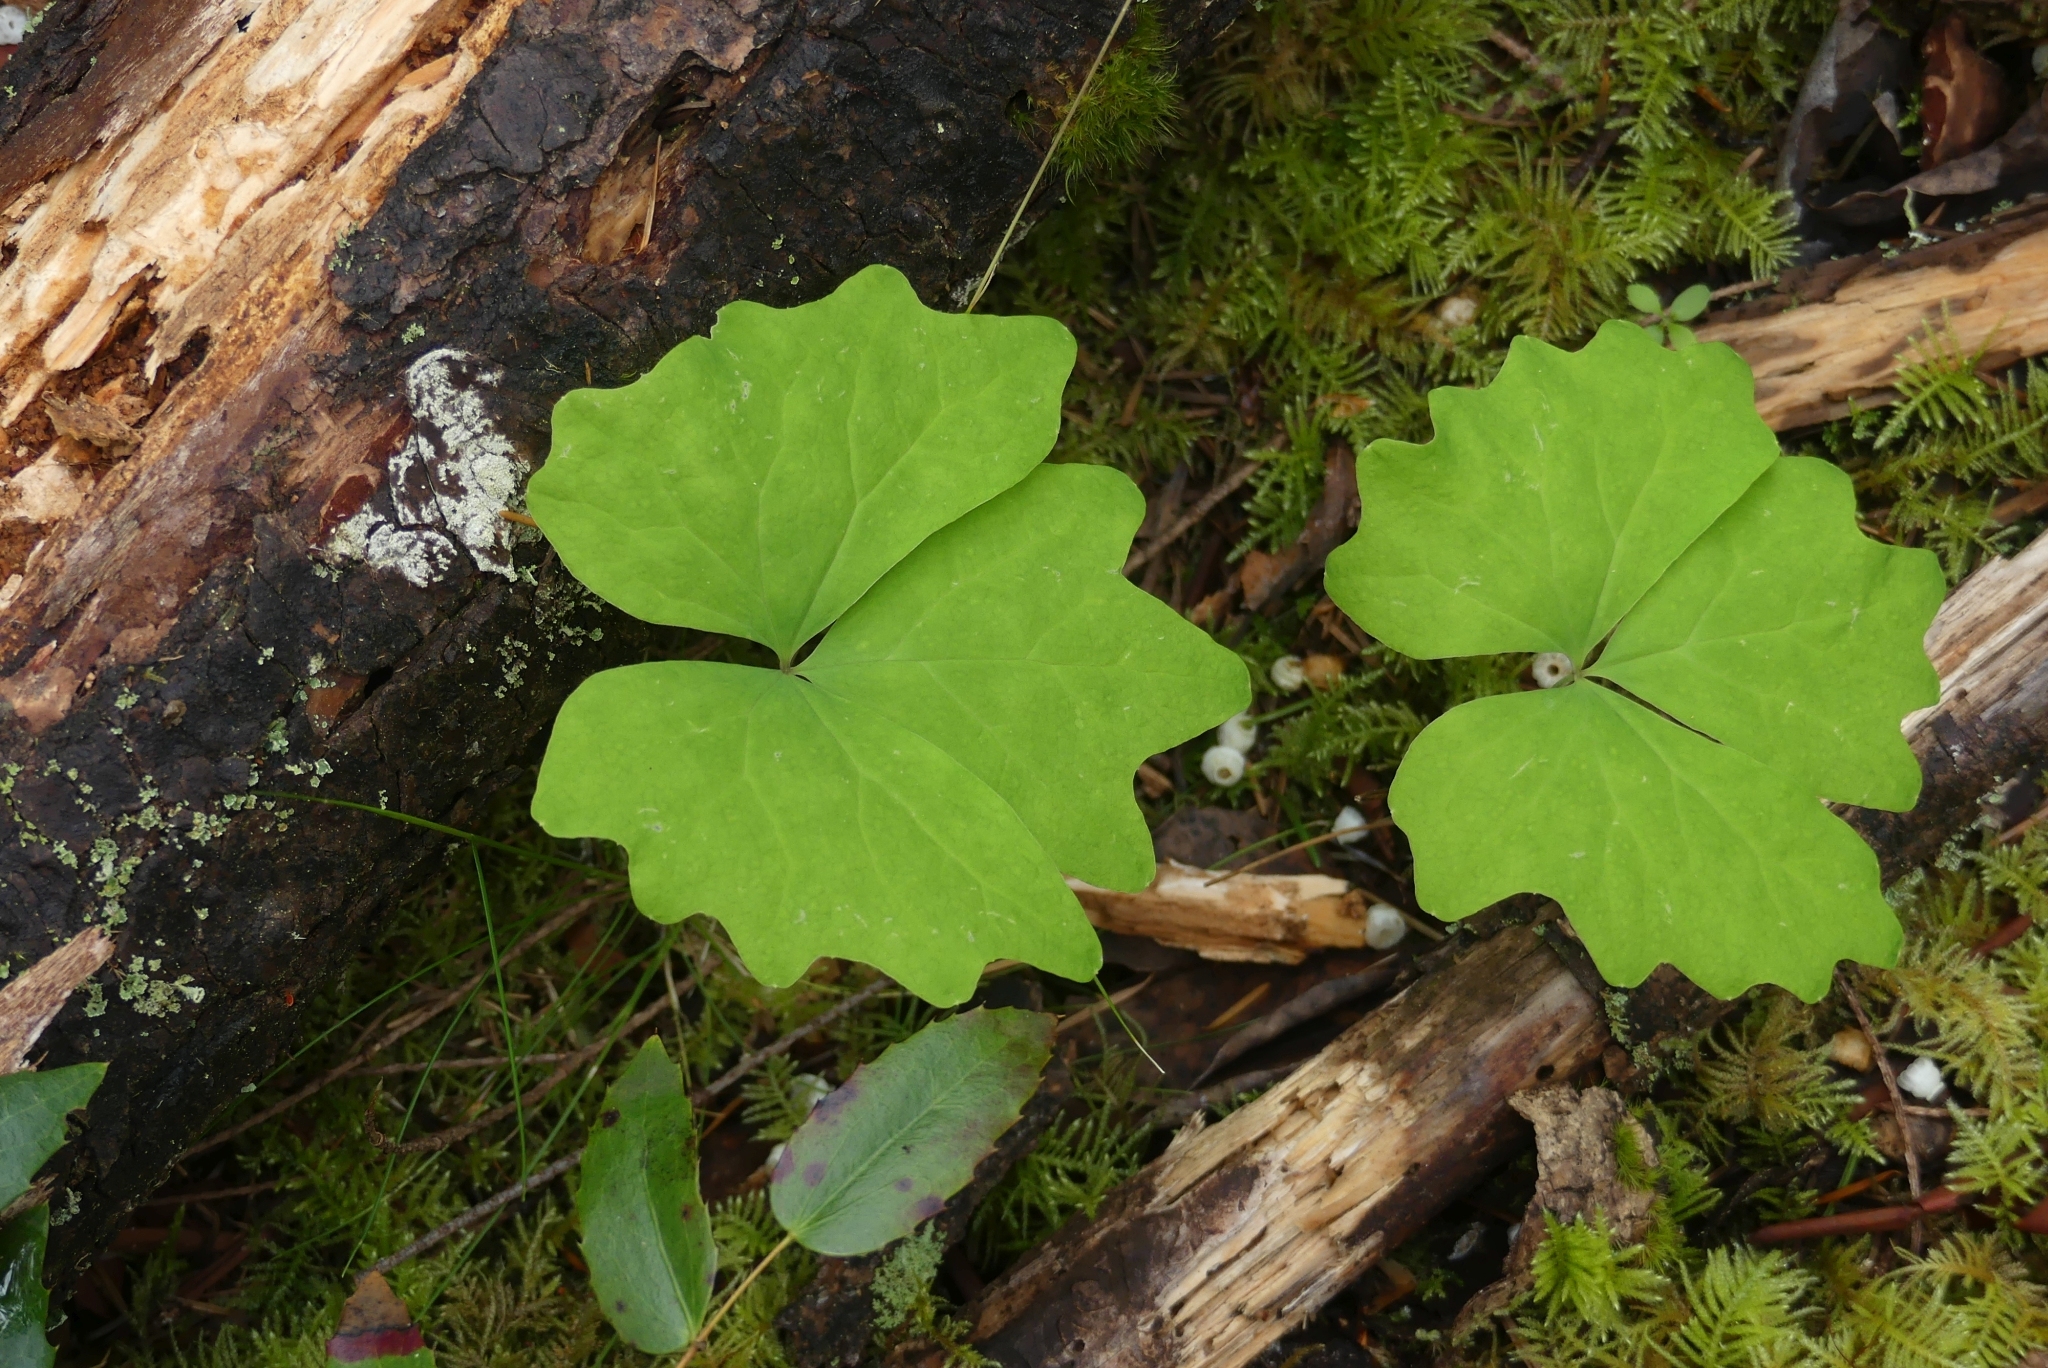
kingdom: Plantae
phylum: Tracheophyta
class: Magnoliopsida
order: Ranunculales
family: Berberidaceae
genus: Achlys
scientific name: Achlys triphylla
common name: Vanilla-leaf
